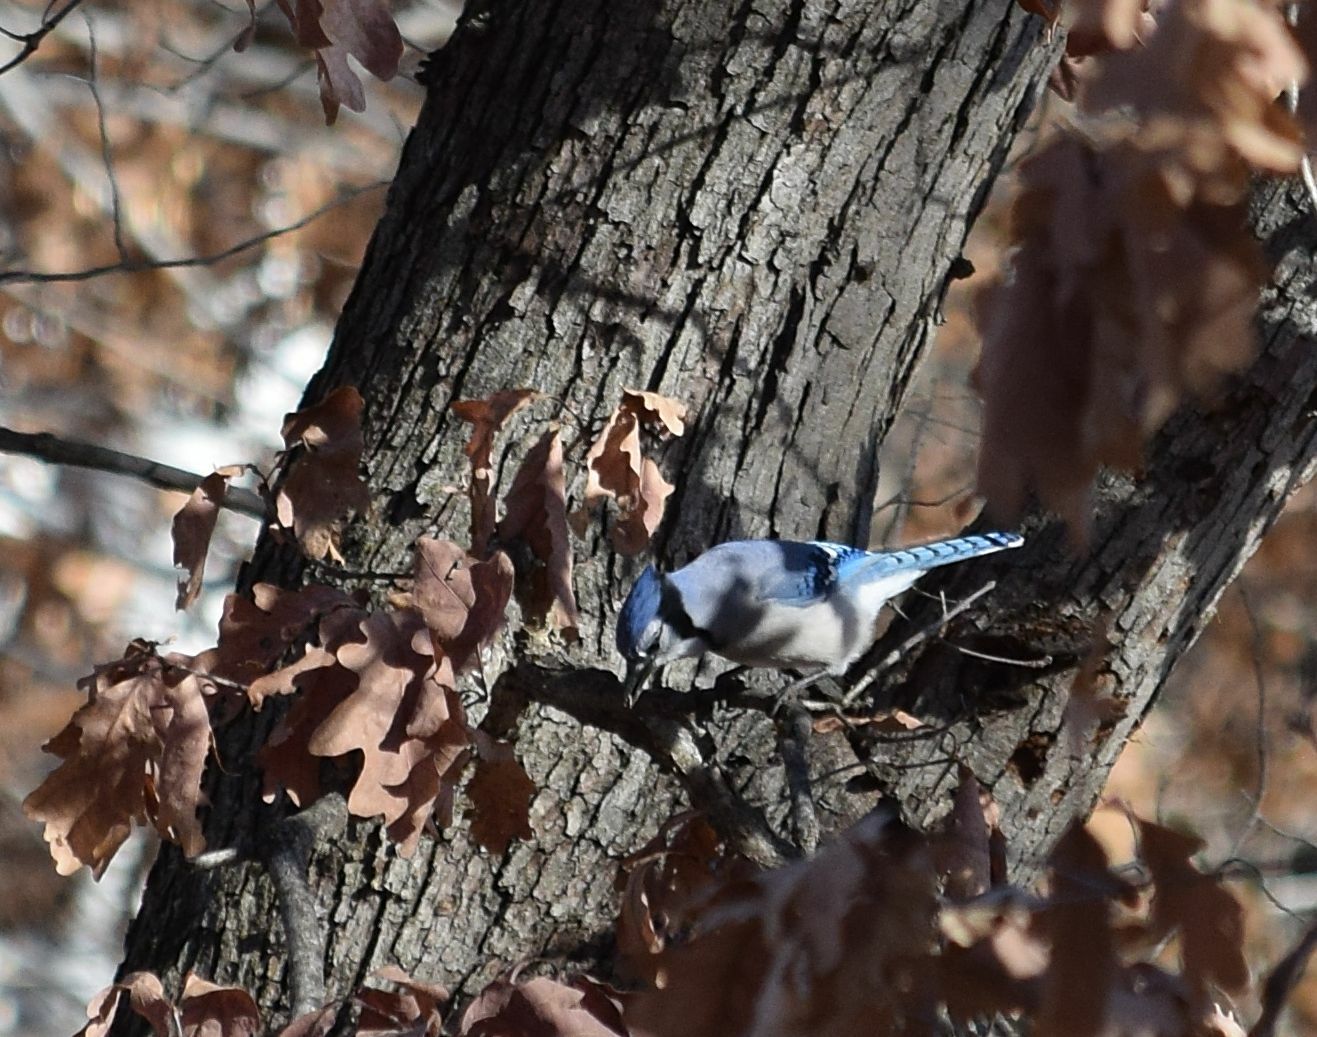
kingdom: Animalia
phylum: Chordata
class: Aves
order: Passeriformes
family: Corvidae
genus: Cyanocitta
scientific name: Cyanocitta cristata
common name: Blue jay
